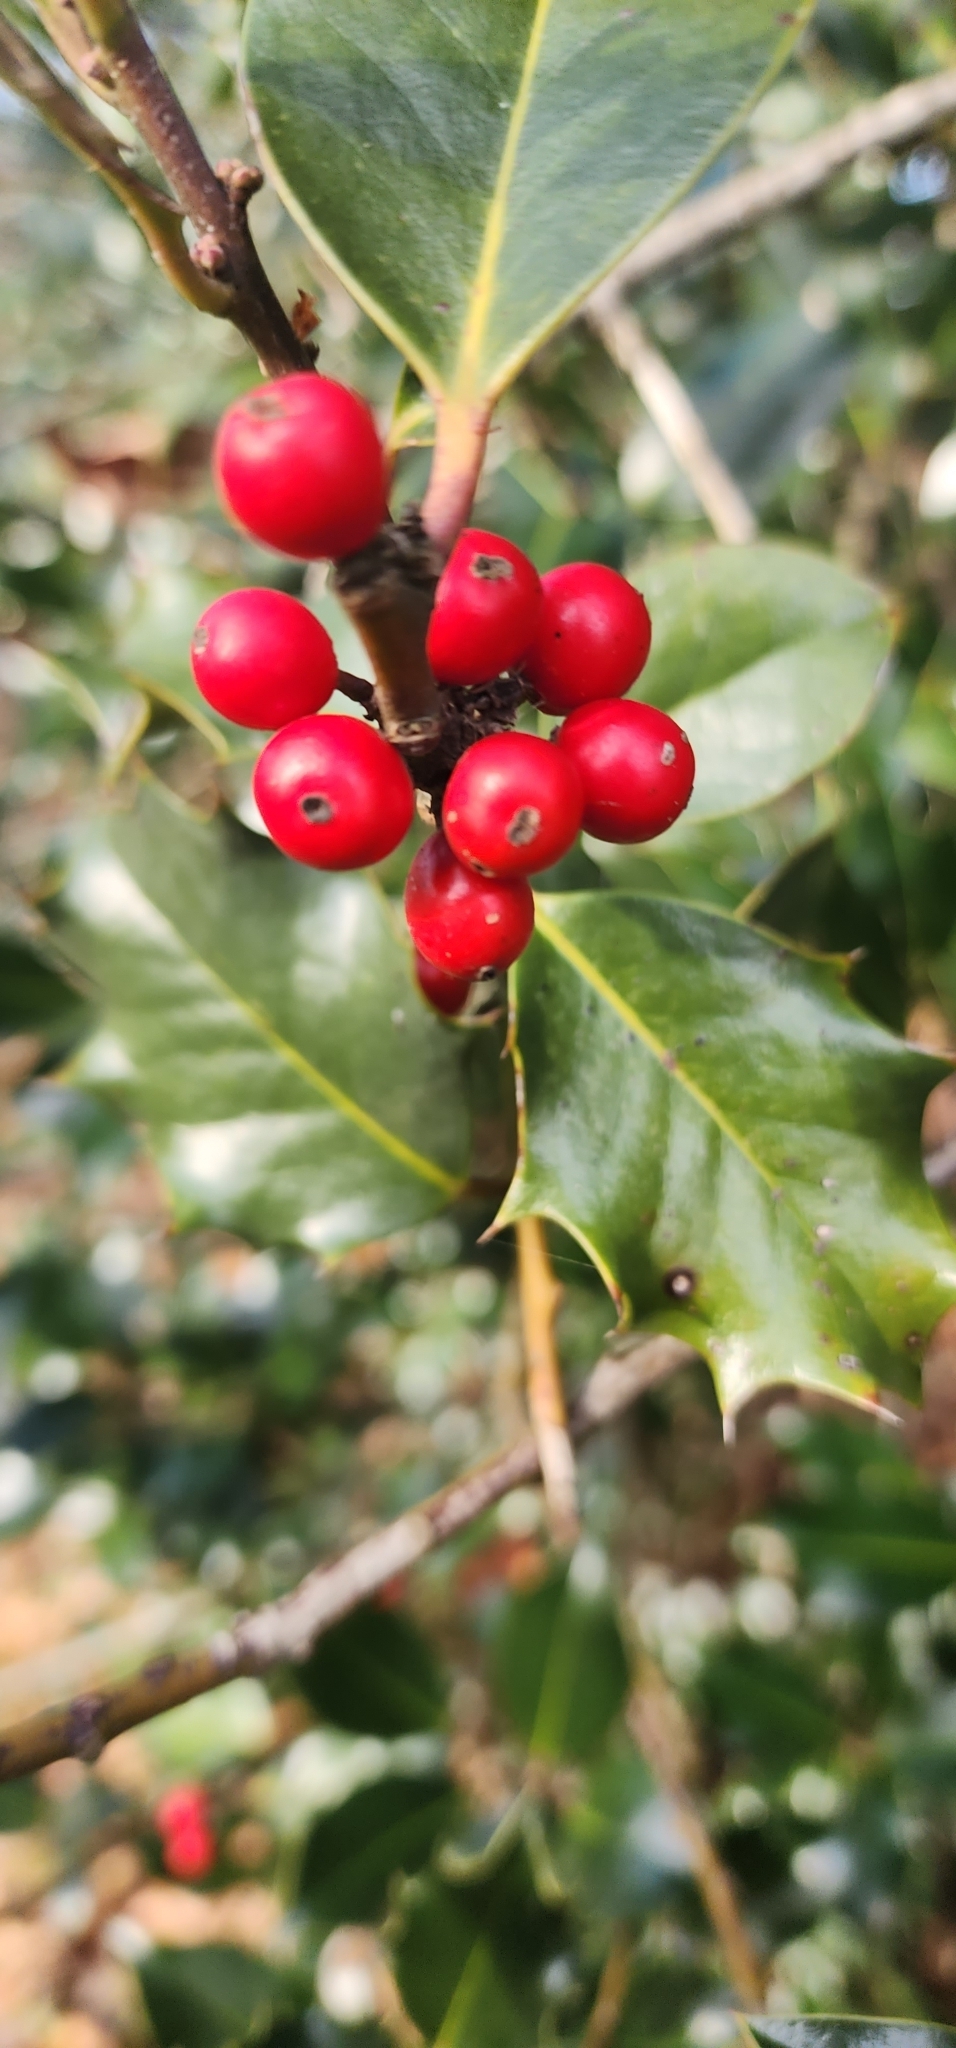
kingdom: Plantae
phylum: Tracheophyta
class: Magnoliopsida
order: Aquifoliales
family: Aquifoliaceae
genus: Ilex
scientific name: Ilex opaca
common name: American holly
